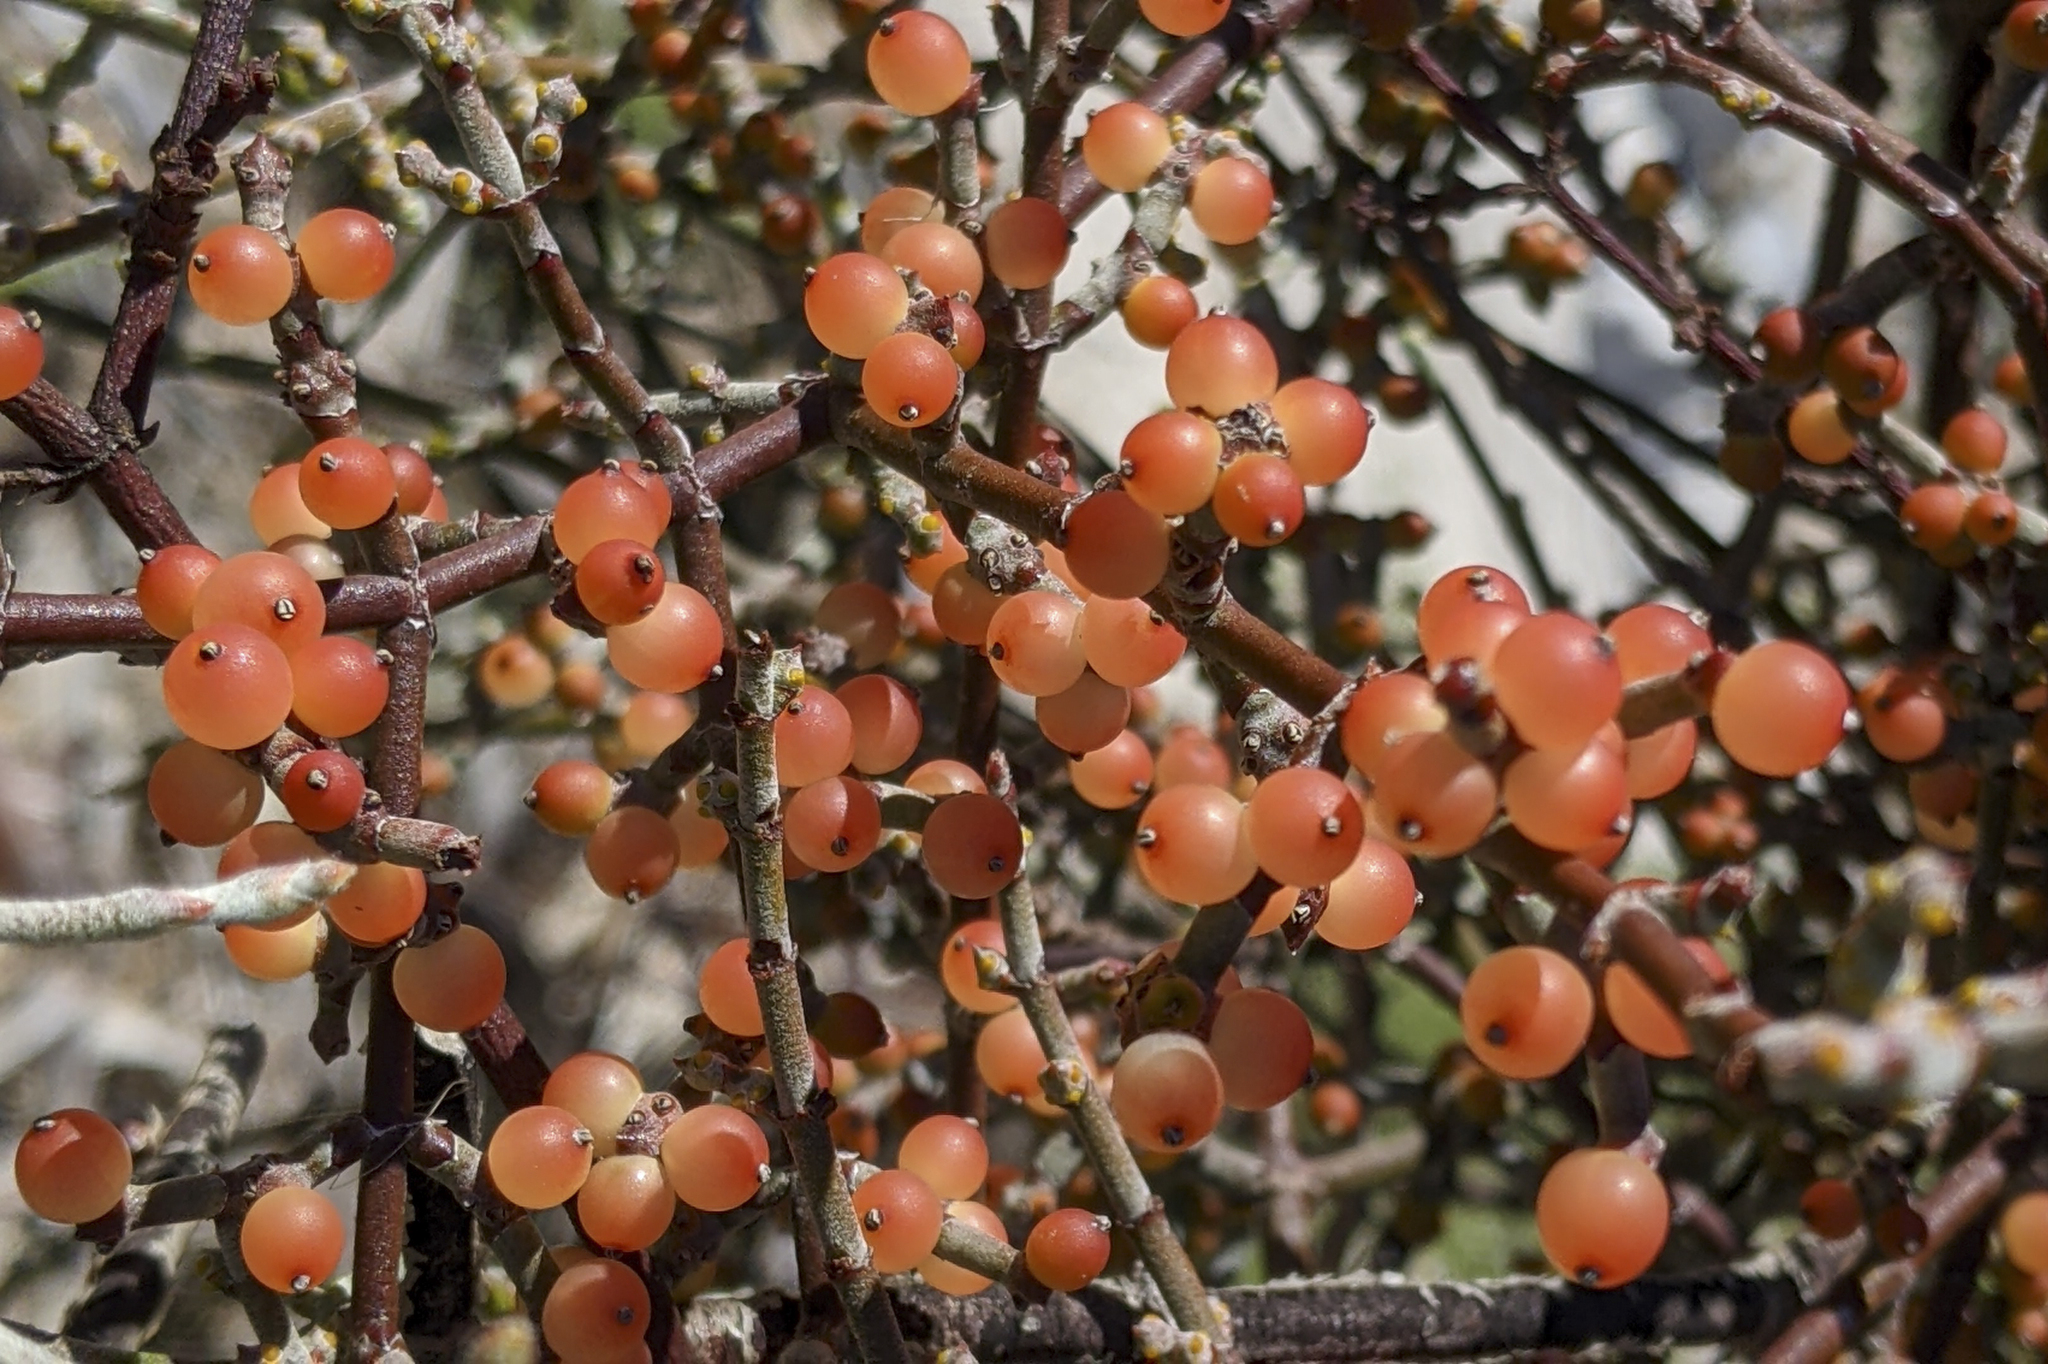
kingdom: Plantae
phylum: Tracheophyta
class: Magnoliopsida
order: Santalales
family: Viscaceae
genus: Phoradendron
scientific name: Phoradendron californicum
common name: Acacia mistletoe
